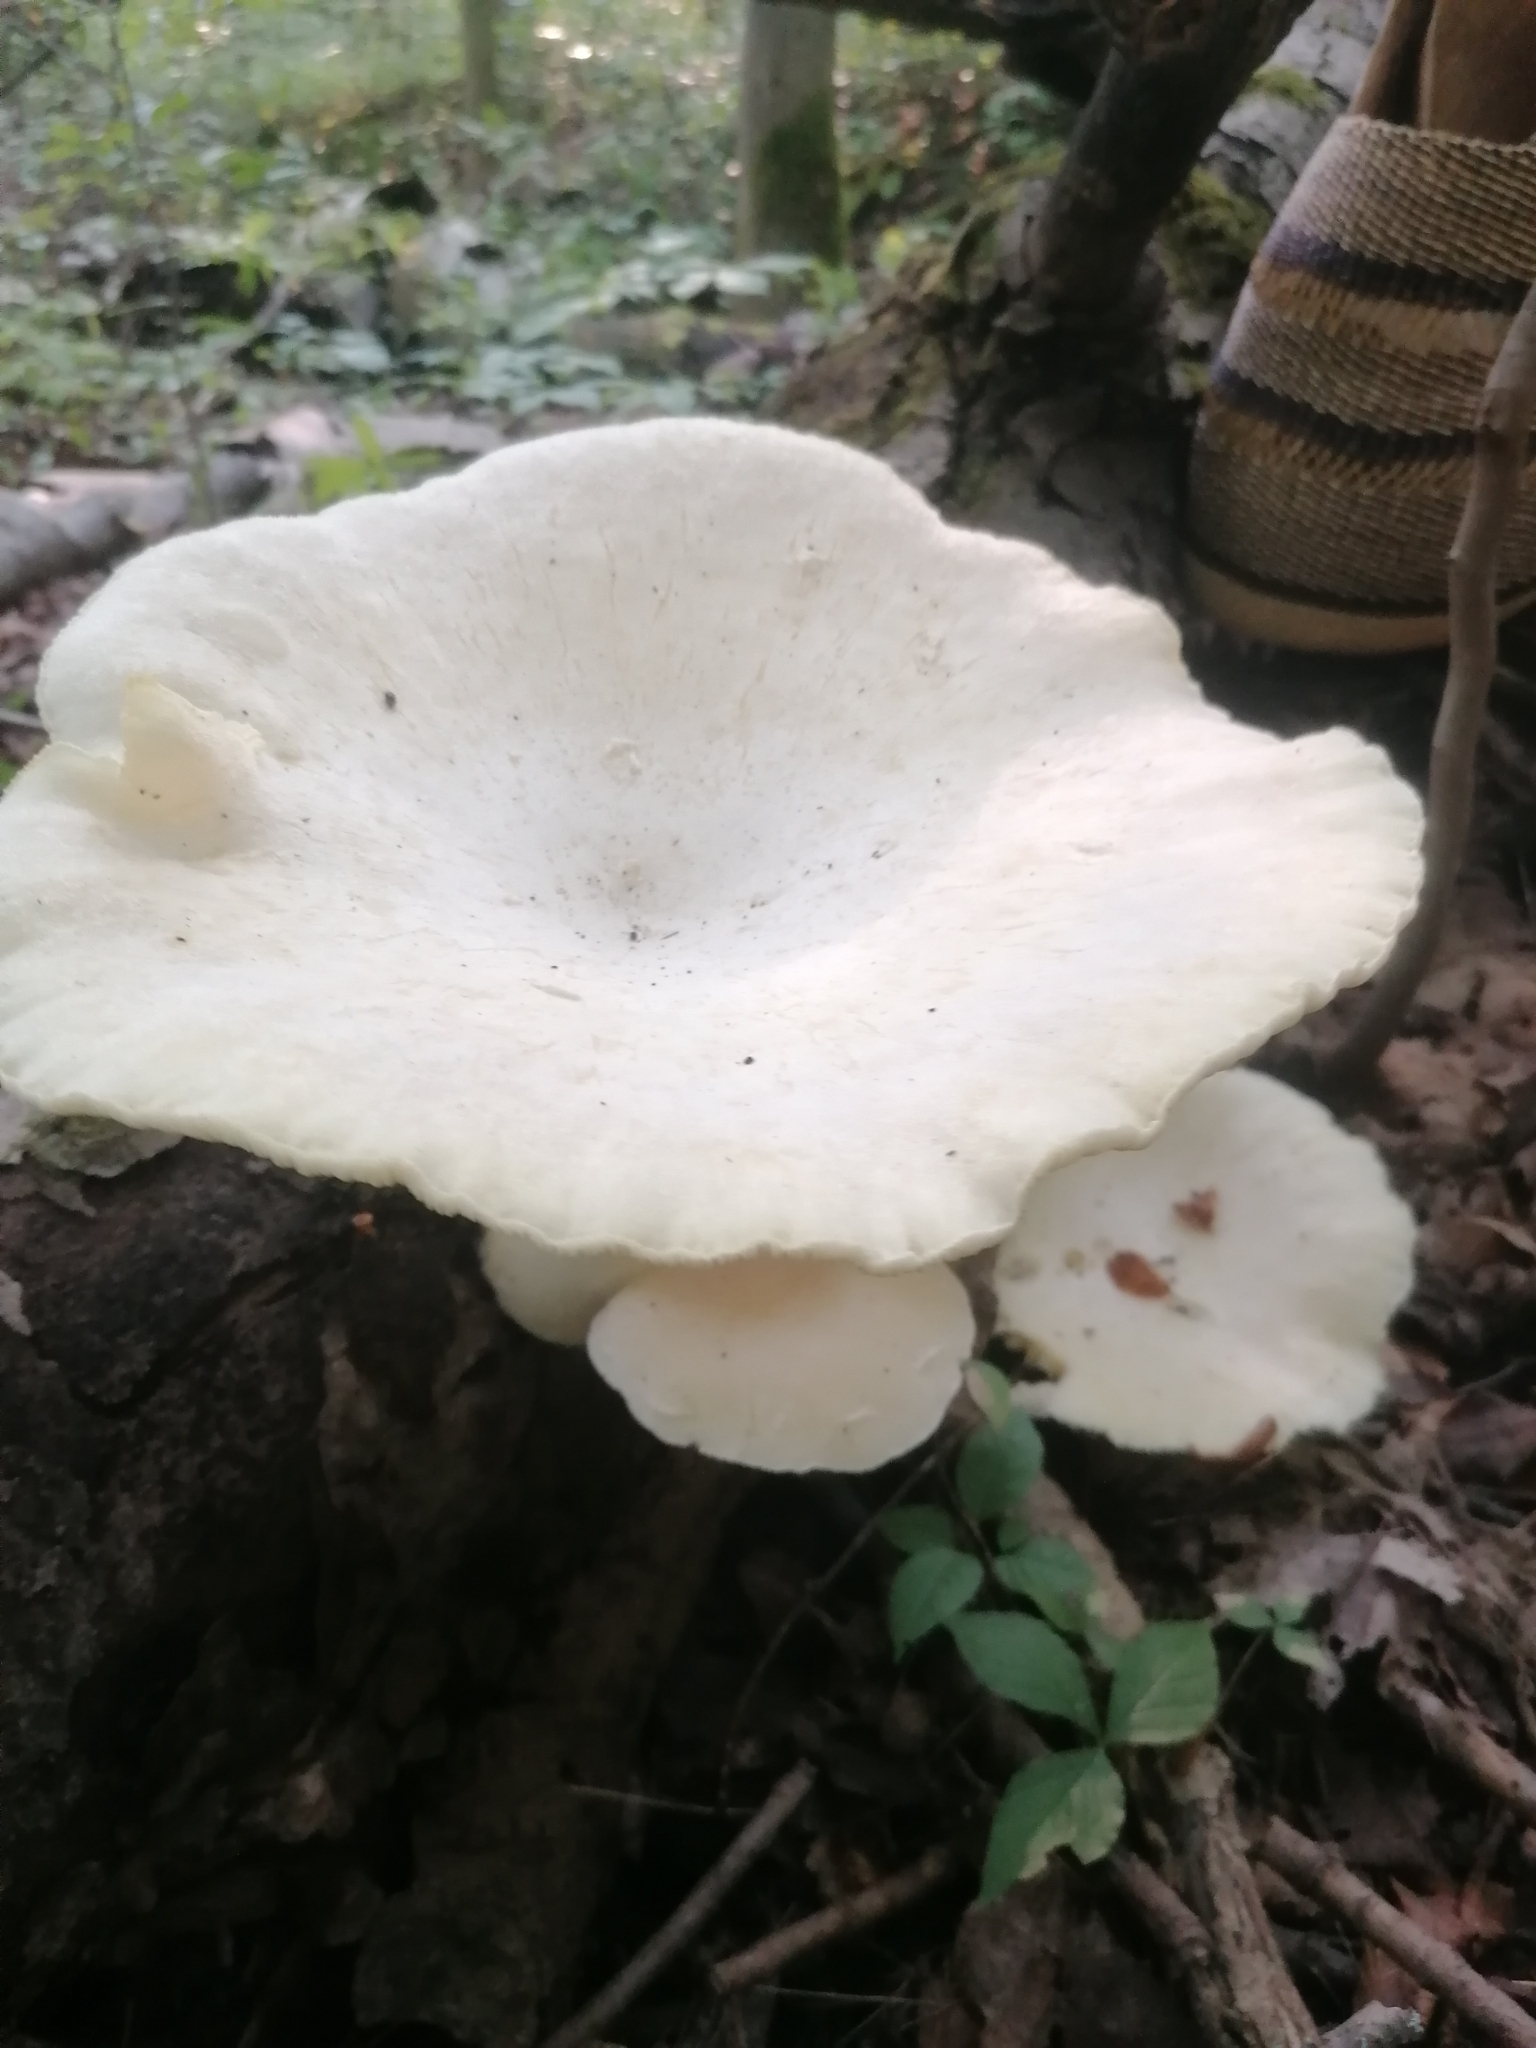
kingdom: Fungi
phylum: Basidiomycota
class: Agaricomycetes
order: Polyporales
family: Polyporaceae
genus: Lentinus
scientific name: Lentinus levis
